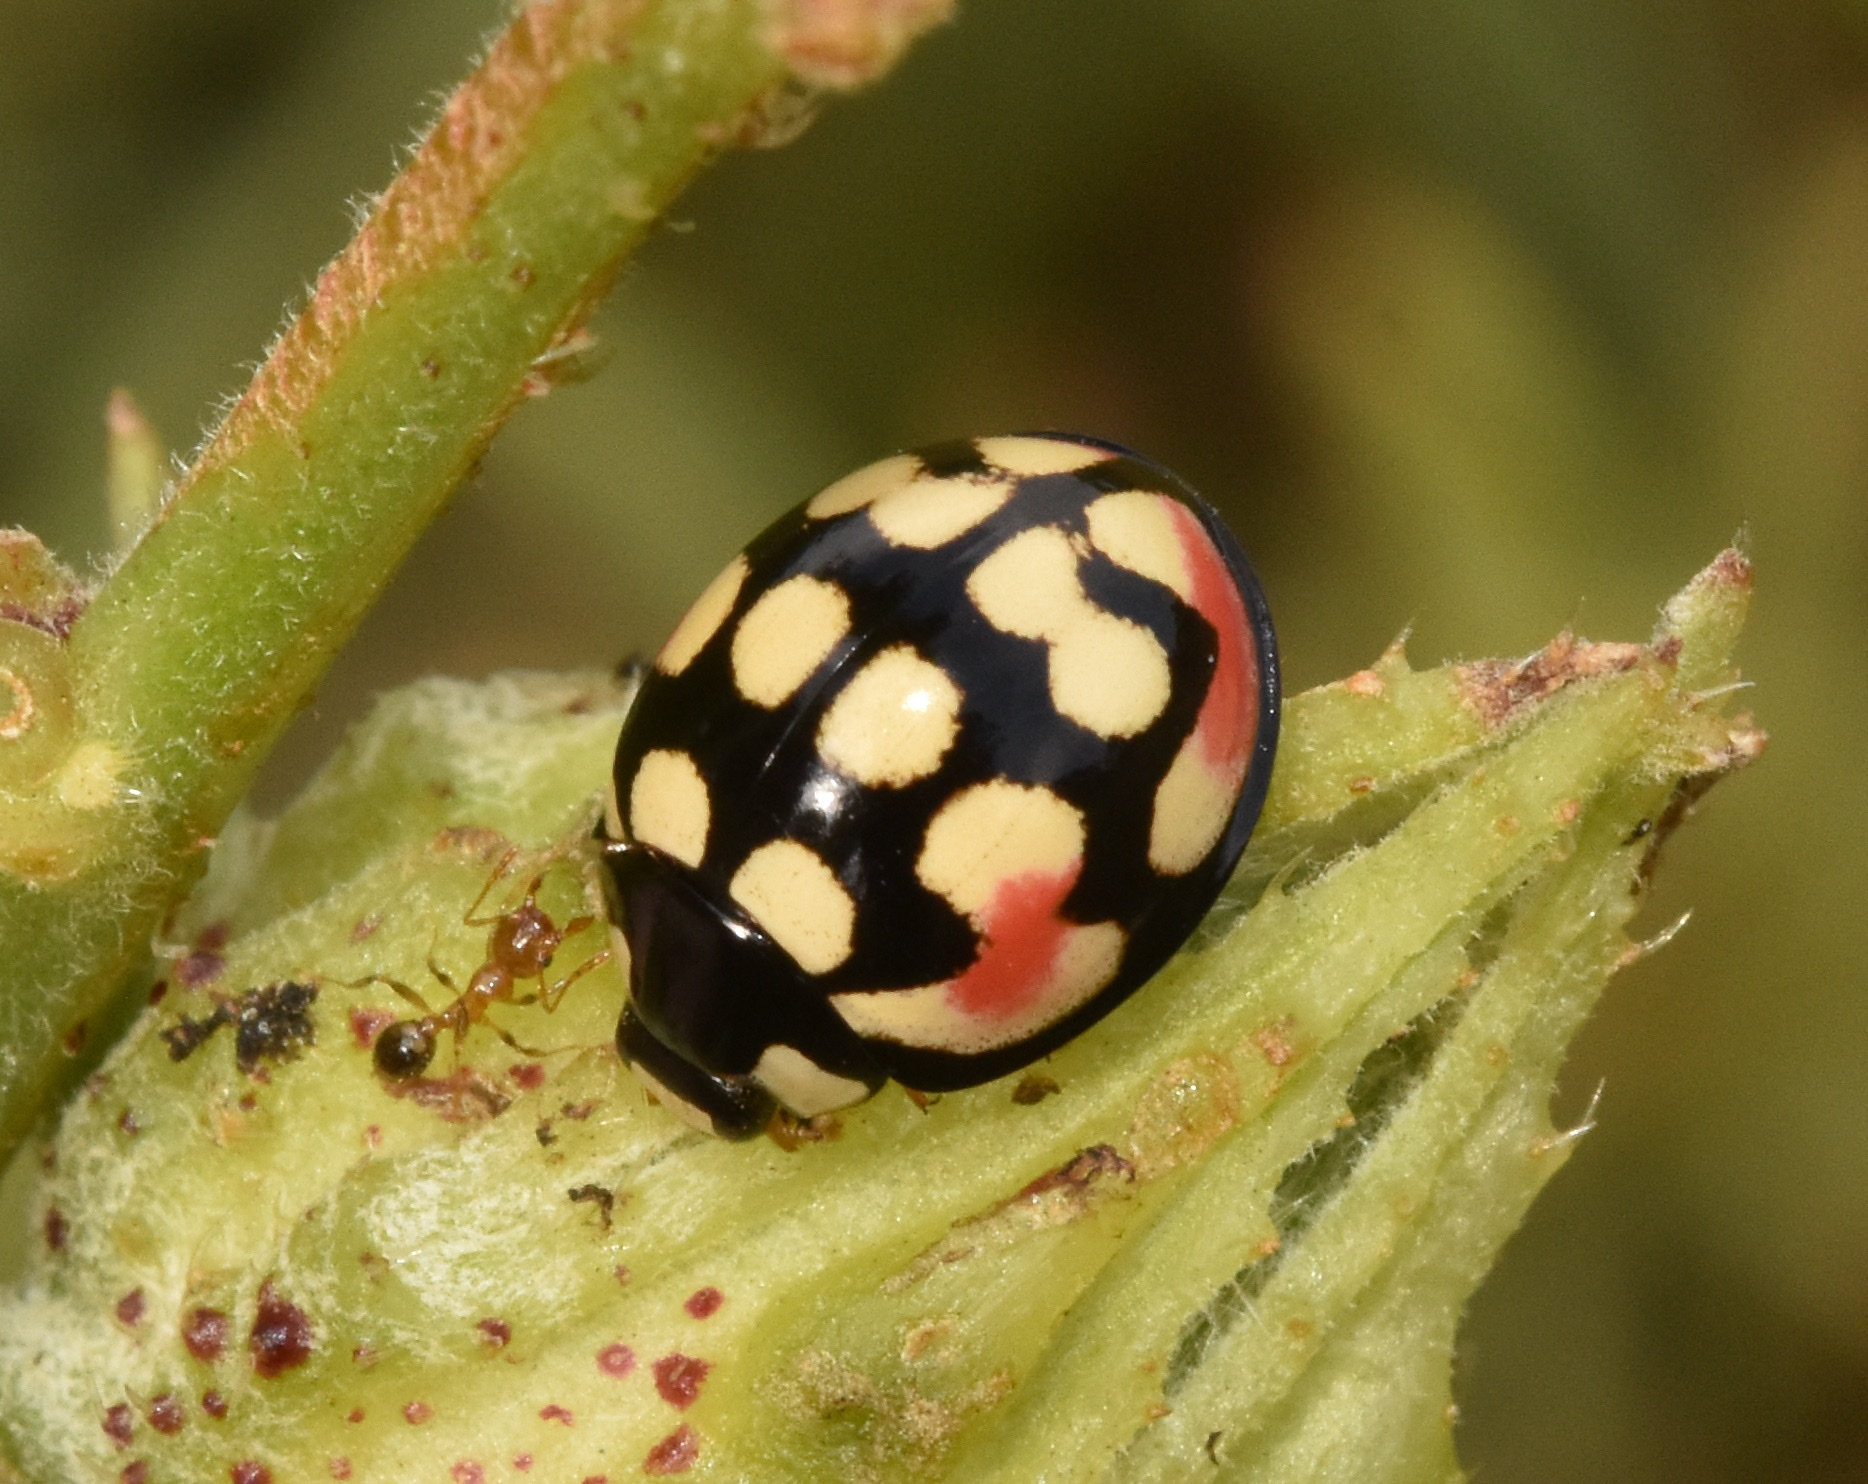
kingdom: Animalia
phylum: Arthropoda
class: Insecta
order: Coleoptera
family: Coccinellidae
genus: Cheilomenes
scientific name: Cheilomenes sulphurea
